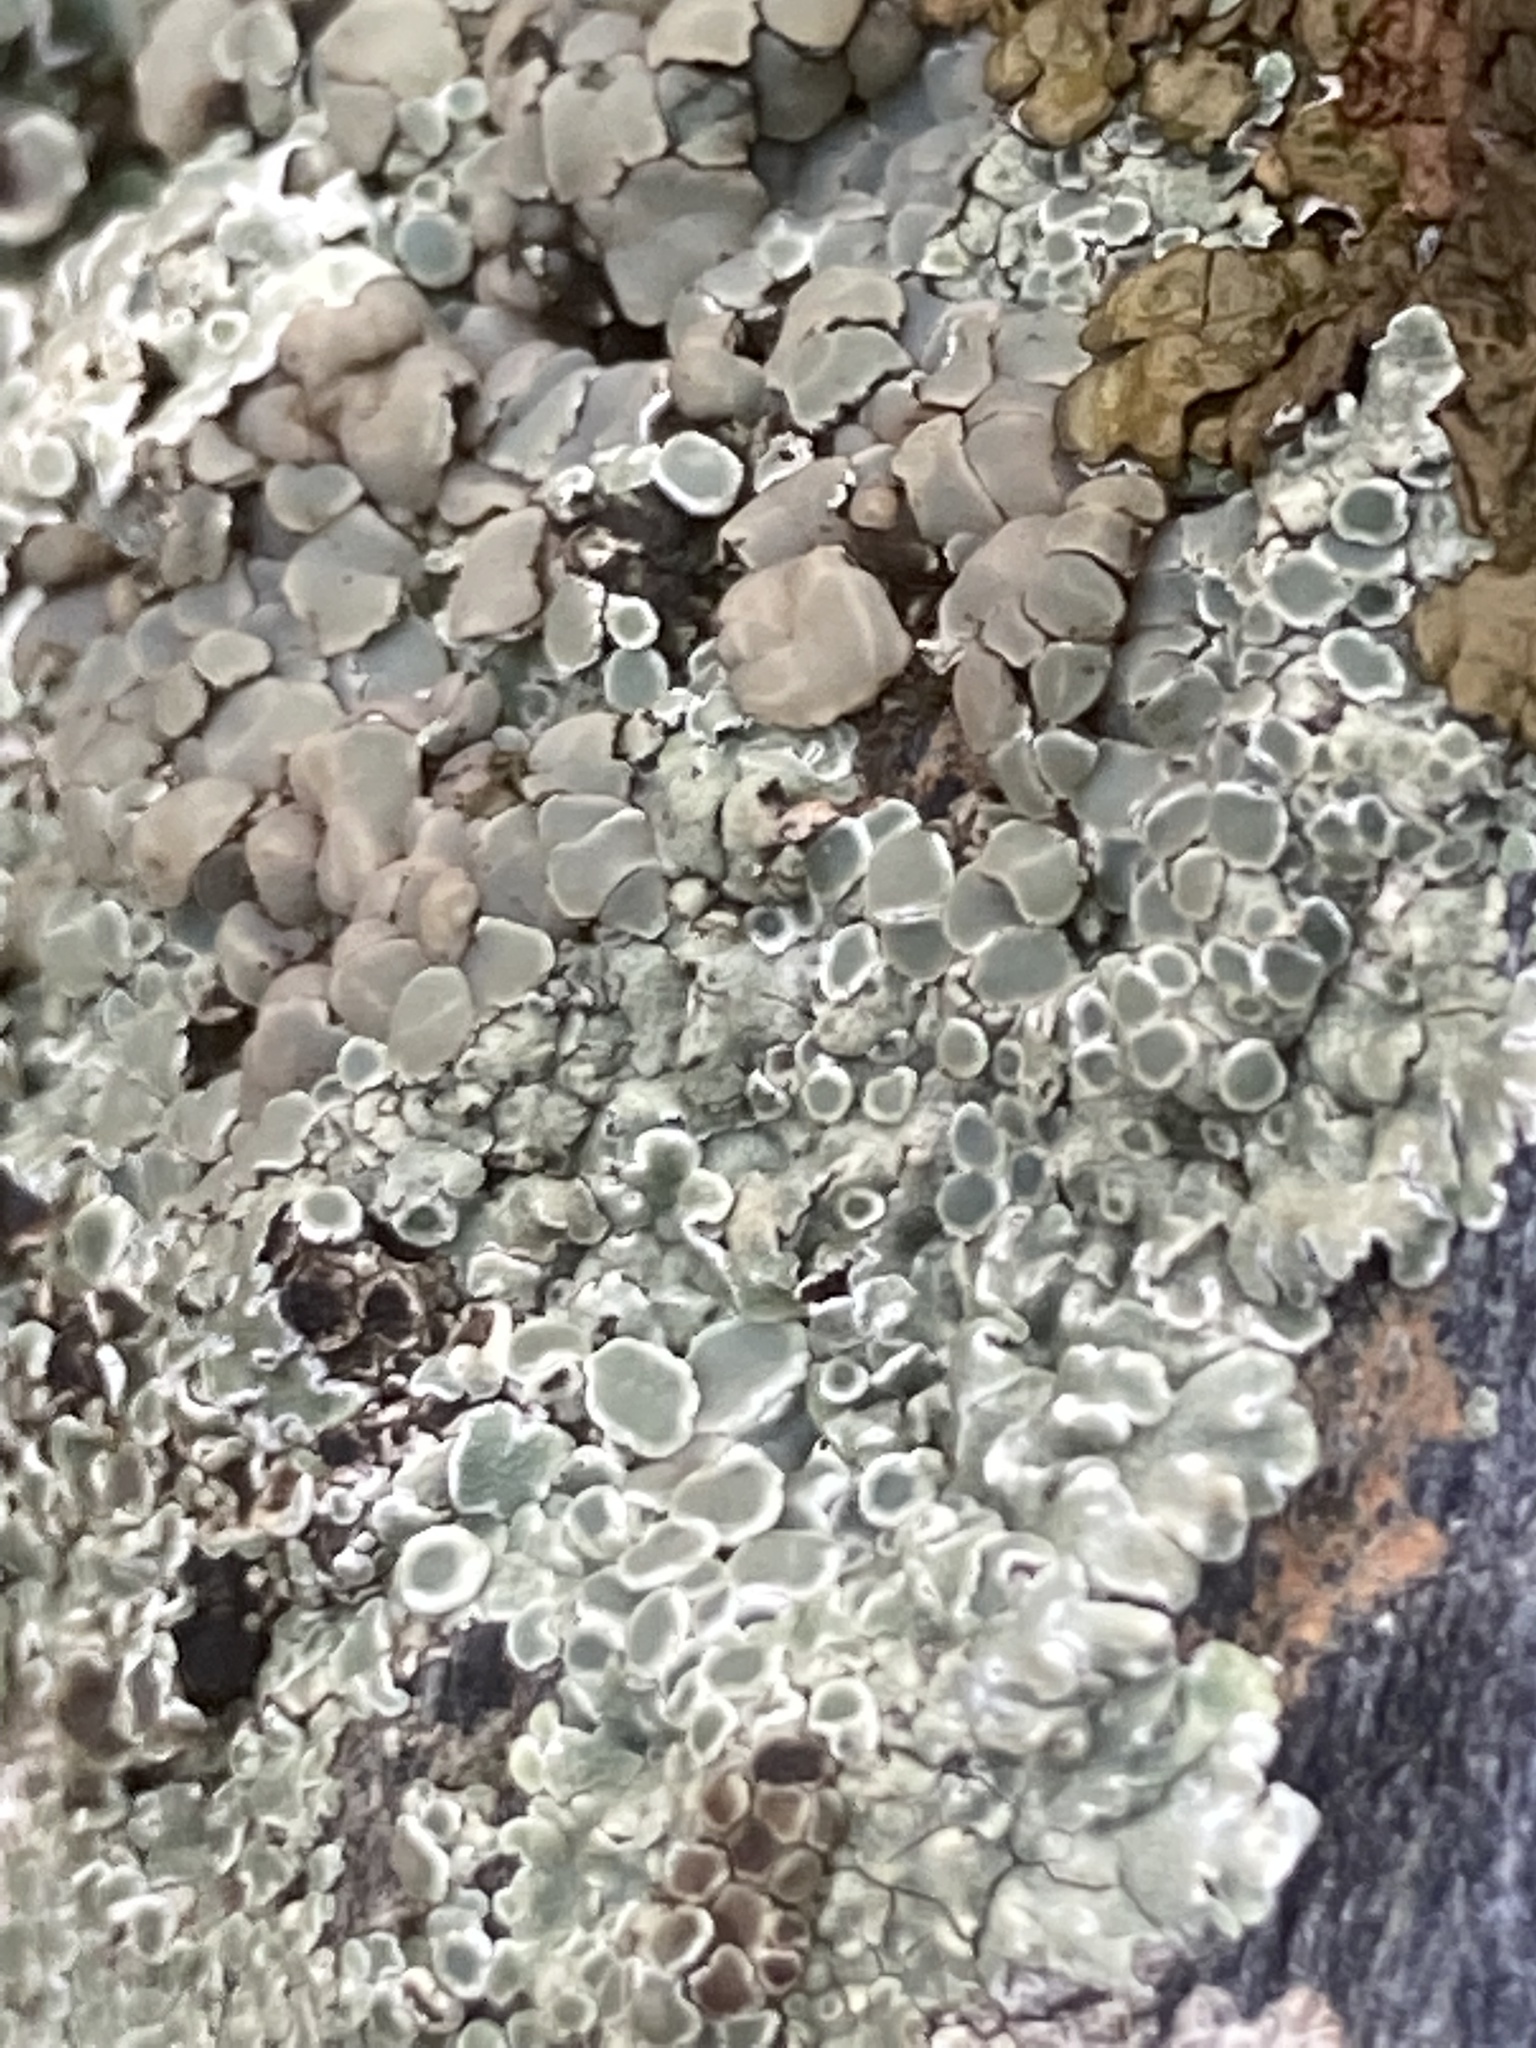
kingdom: Fungi
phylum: Ascomycota
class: Lecanoromycetes
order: Lecanorales
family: Lecanoraceae
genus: Protoparmeliopsis
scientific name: Protoparmeliopsis muralis
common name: Stonewall rim lichen
